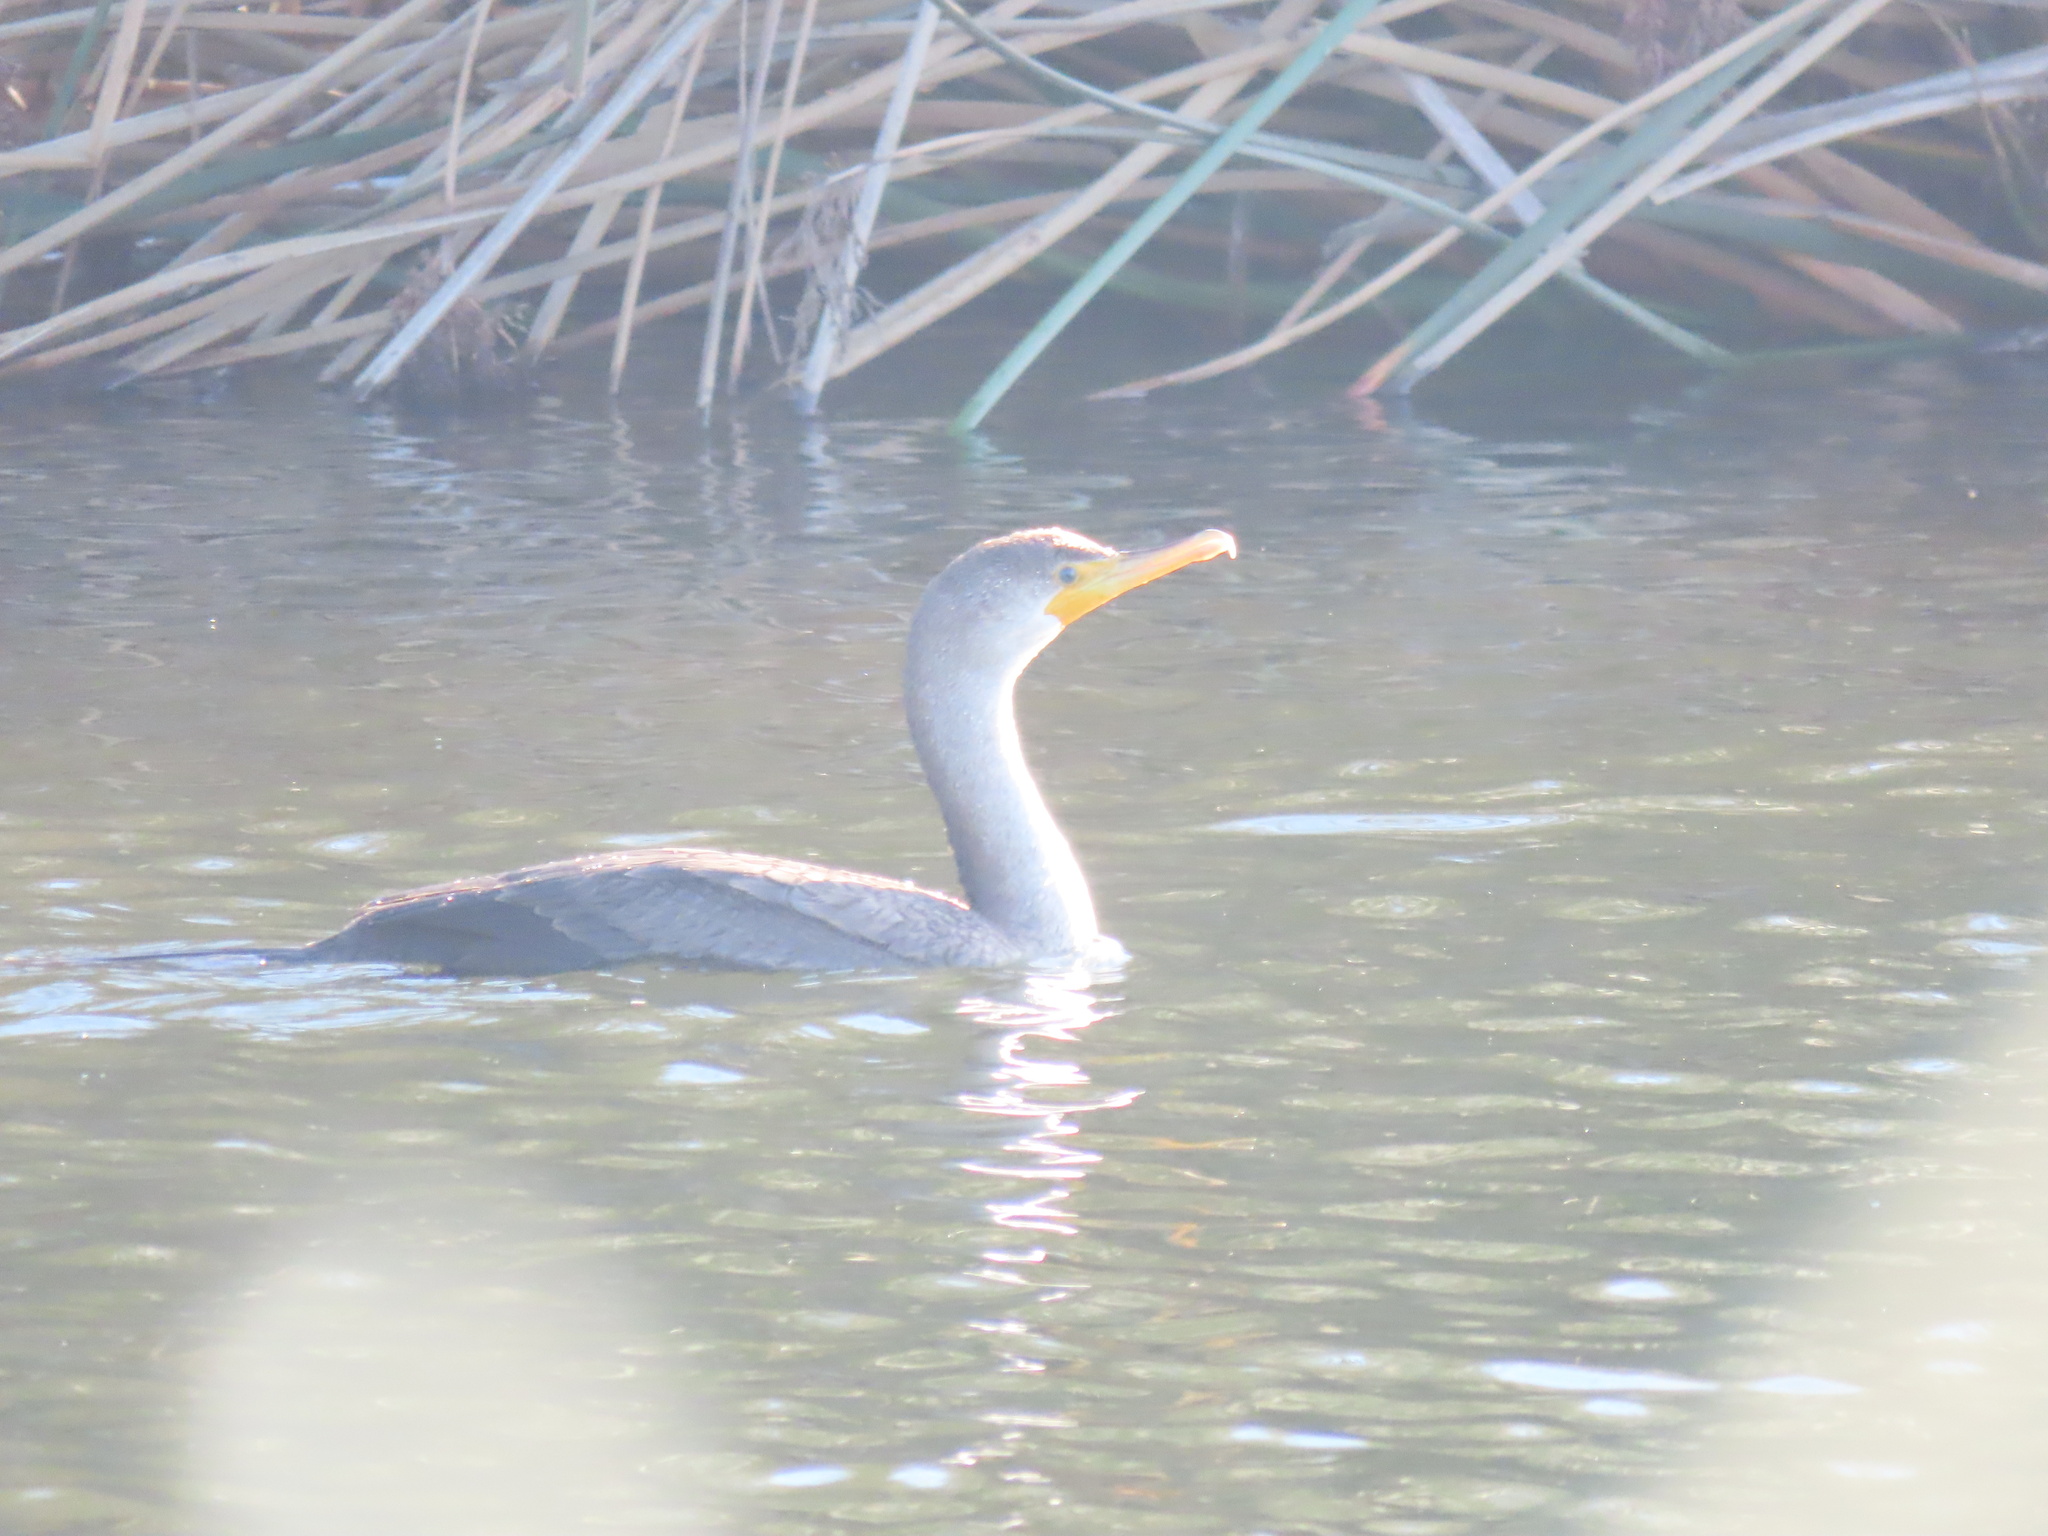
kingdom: Animalia
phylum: Chordata
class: Aves
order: Suliformes
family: Phalacrocoracidae
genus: Phalacrocorax
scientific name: Phalacrocorax auritus
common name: Double-crested cormorant
